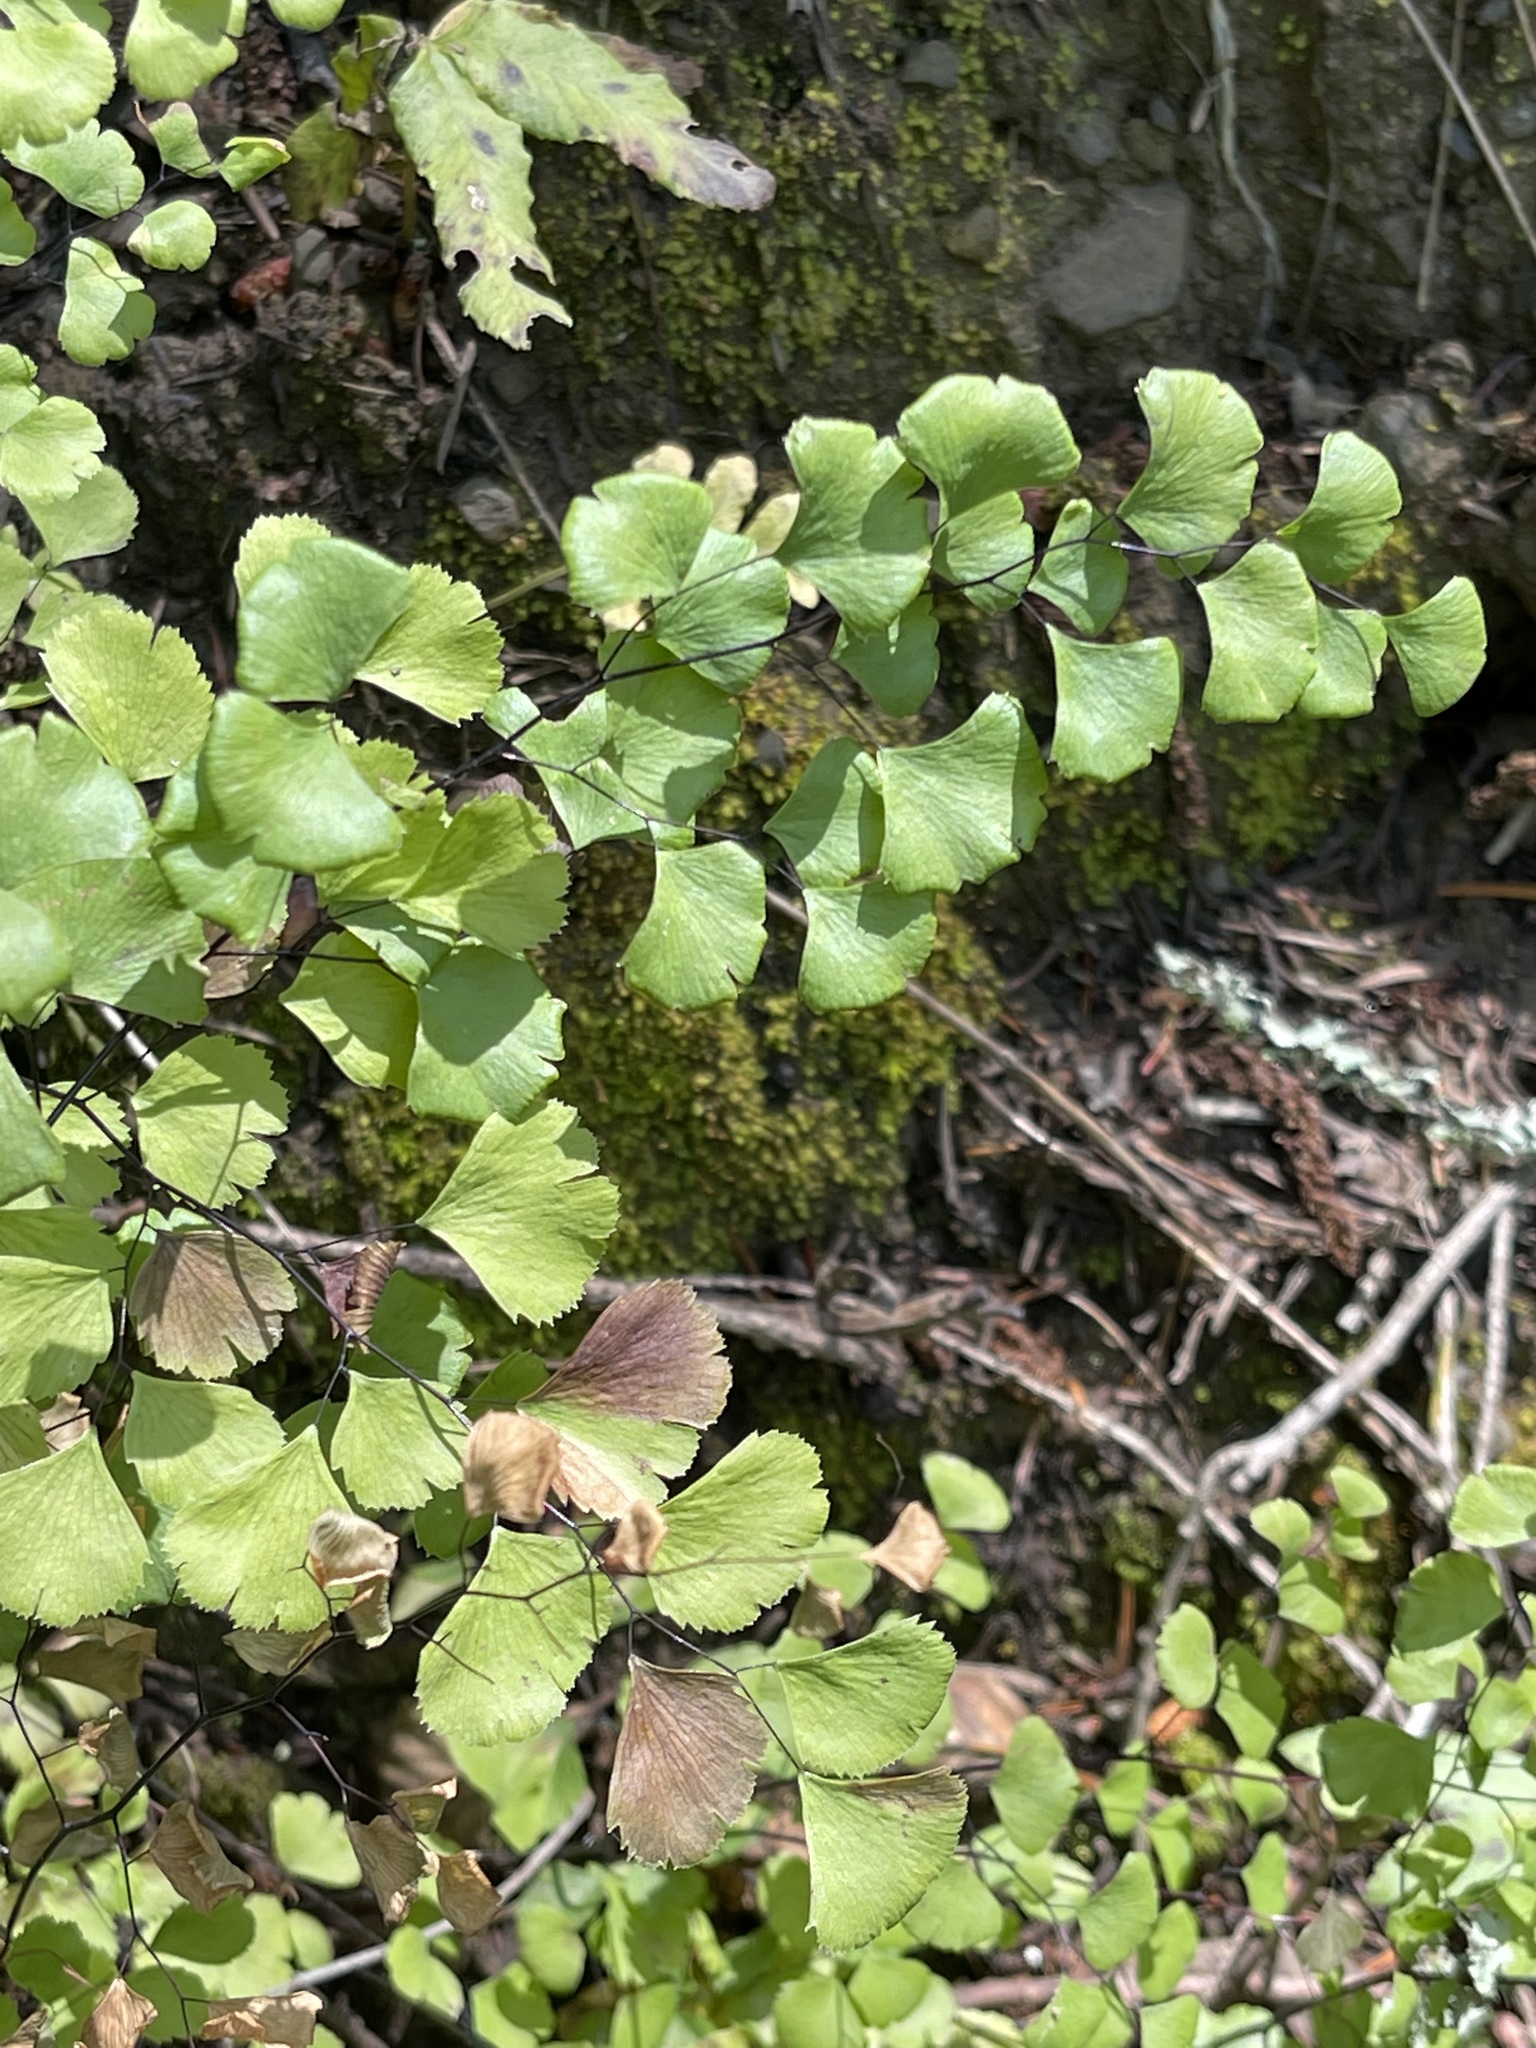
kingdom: Plantae
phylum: Tracheophyta
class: Polypodiopsida
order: Polypodiales
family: Pteridaceae
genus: Adiantum
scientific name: Adiantum jordanii
